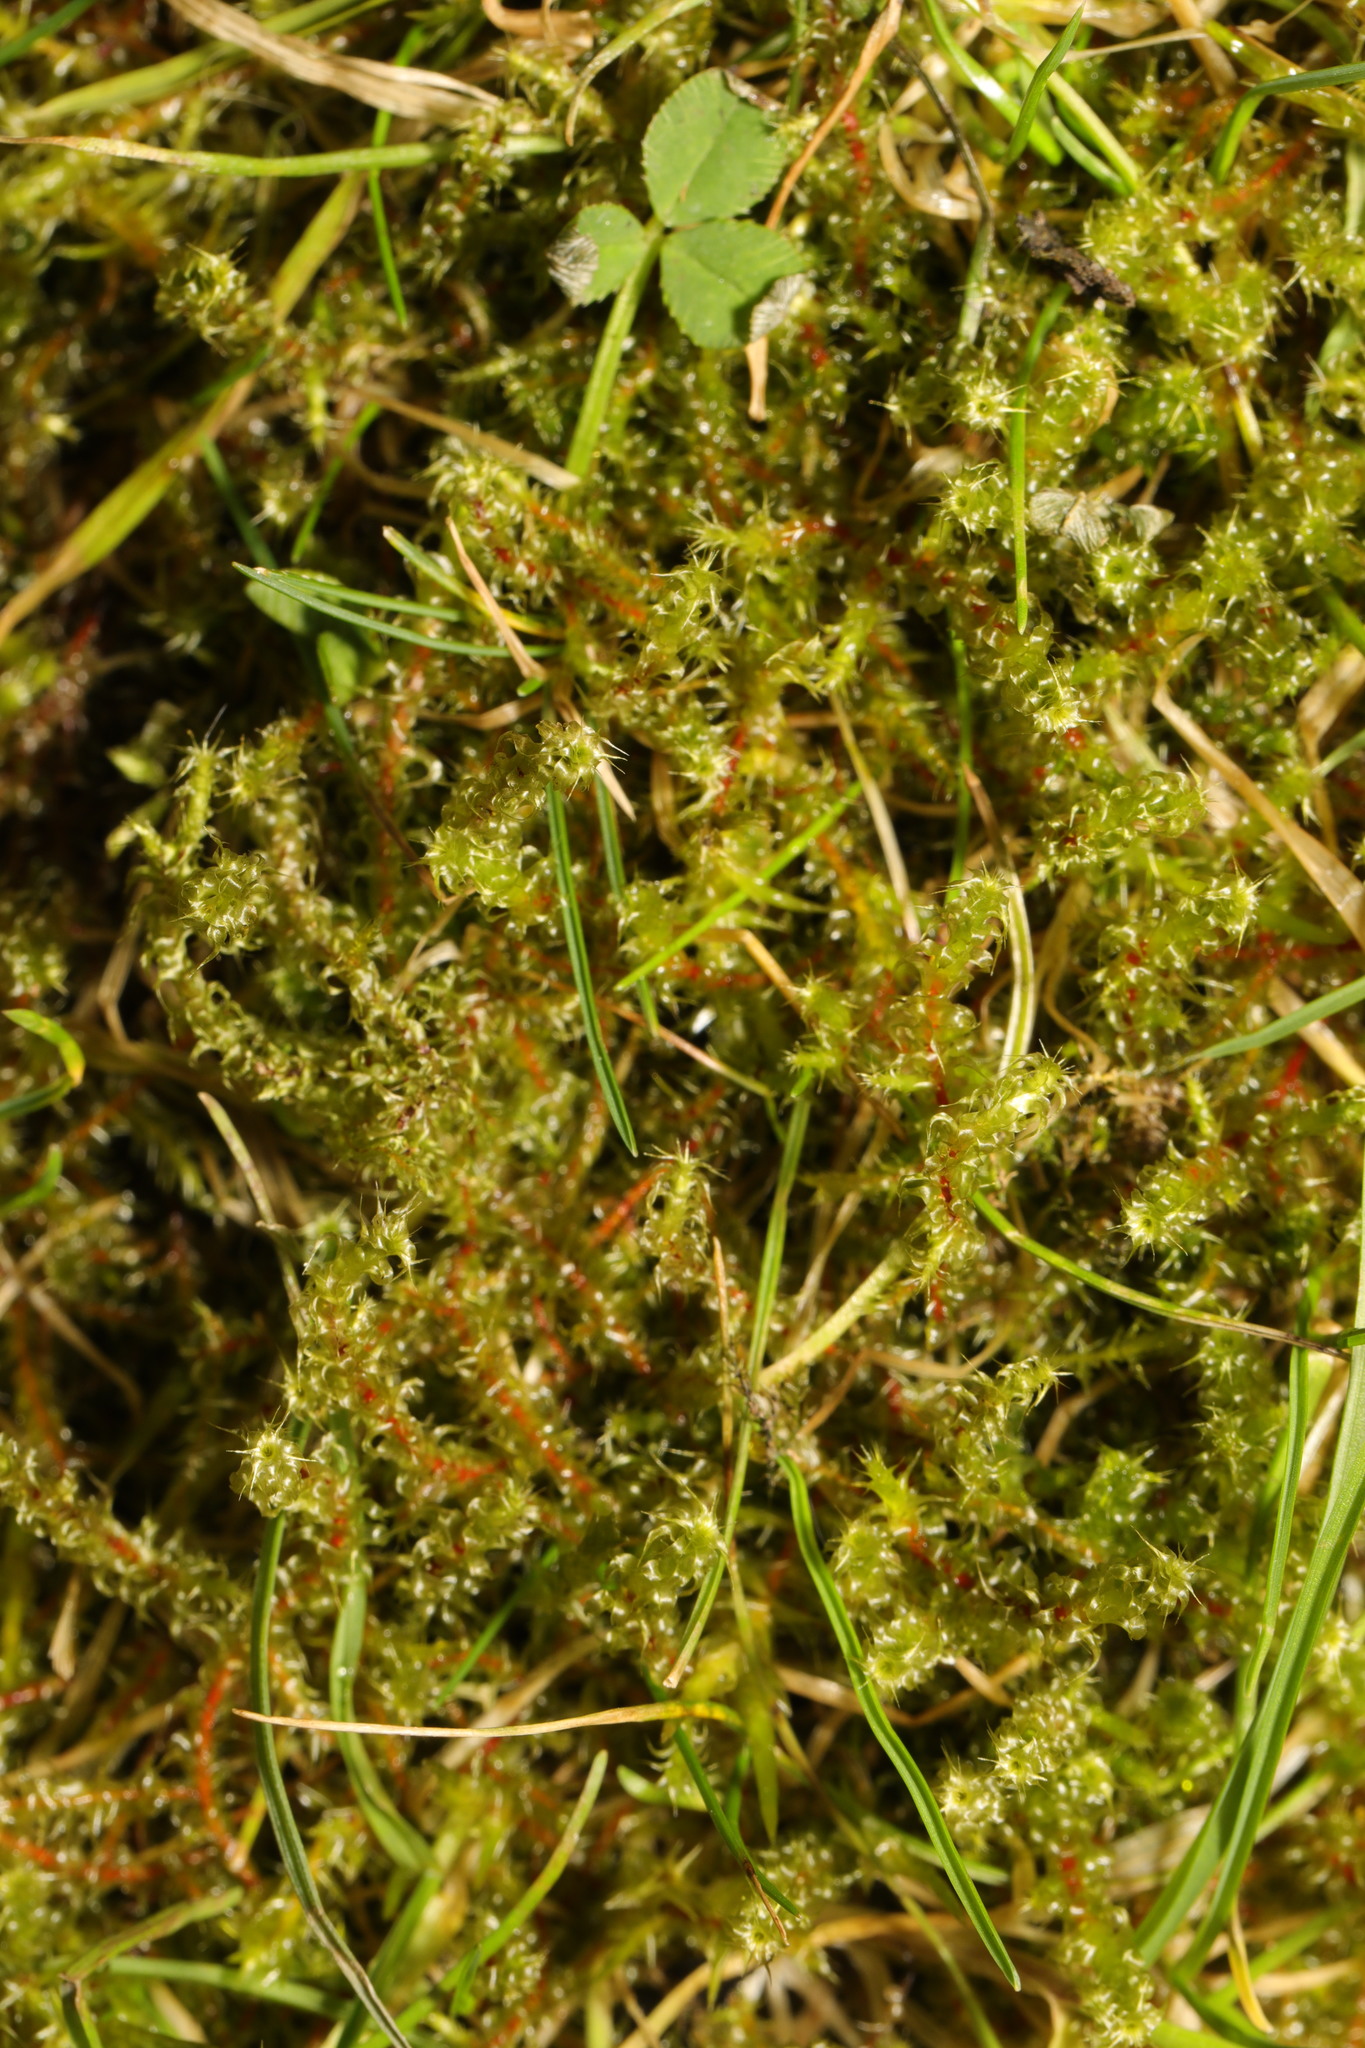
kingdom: Plantae
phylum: Bryophyta
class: Bryopsida
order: Hypnales
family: Hylocomiaceae
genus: Rhytidiadelphus
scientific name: Rhytidiadelphus squarrosus
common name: Springy turf-moss
